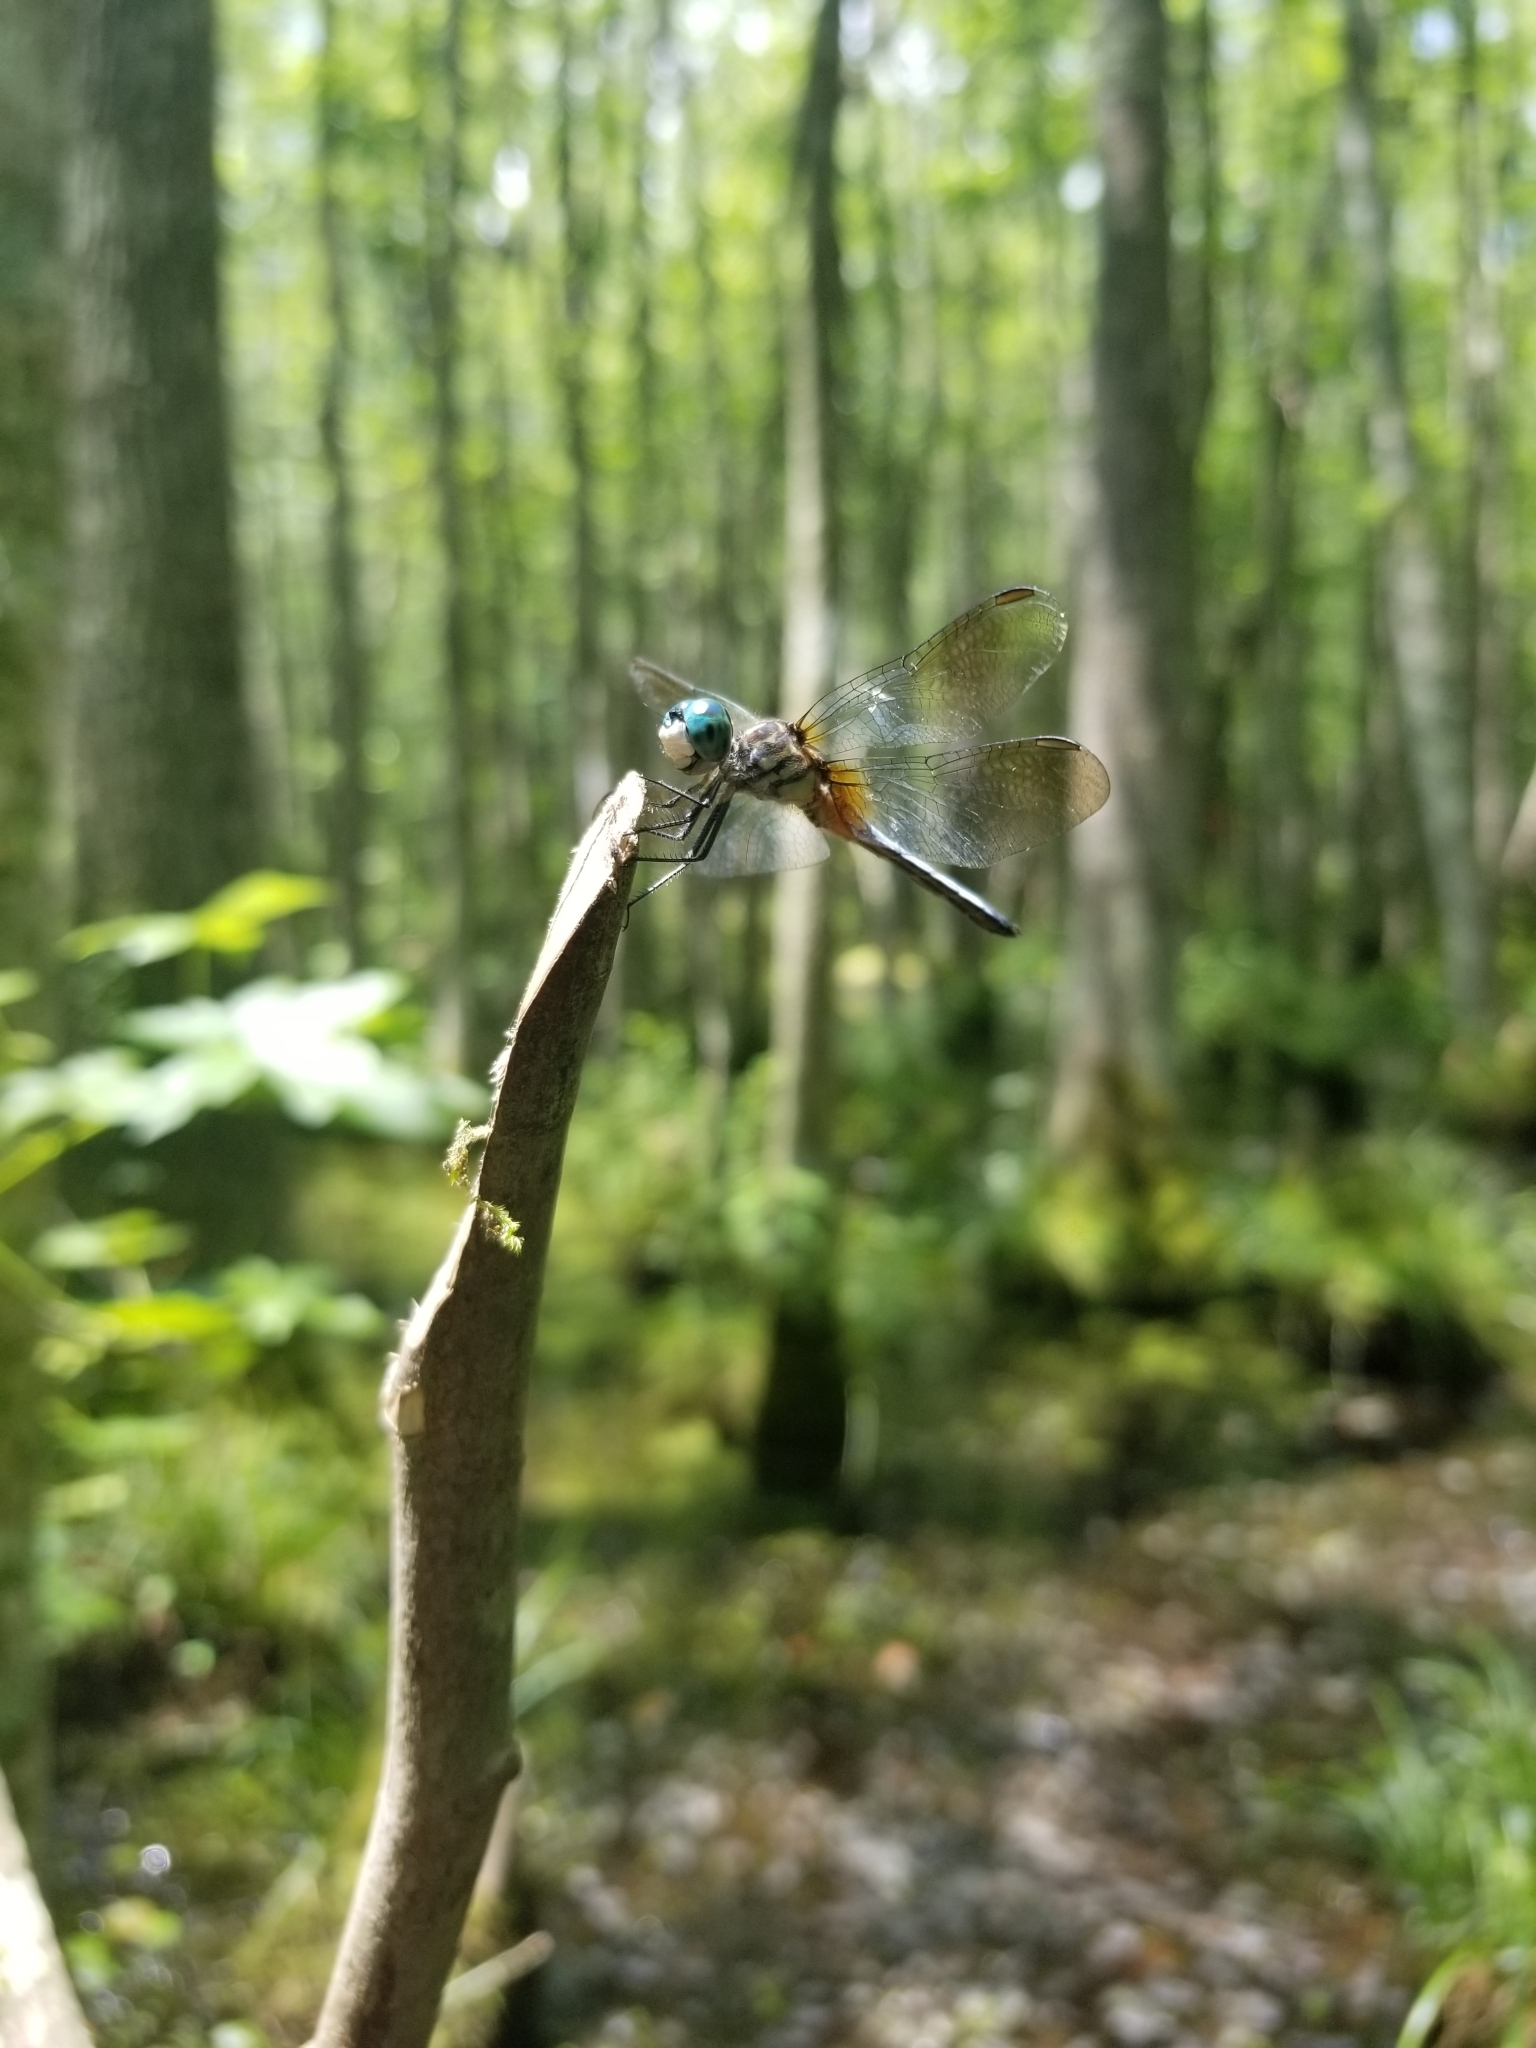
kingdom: Animalia
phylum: Arthropoda
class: Insecta
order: Odonata
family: Libellulidae
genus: Pachydiplax
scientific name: Pachydiplax longipennis
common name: Blue dasher
